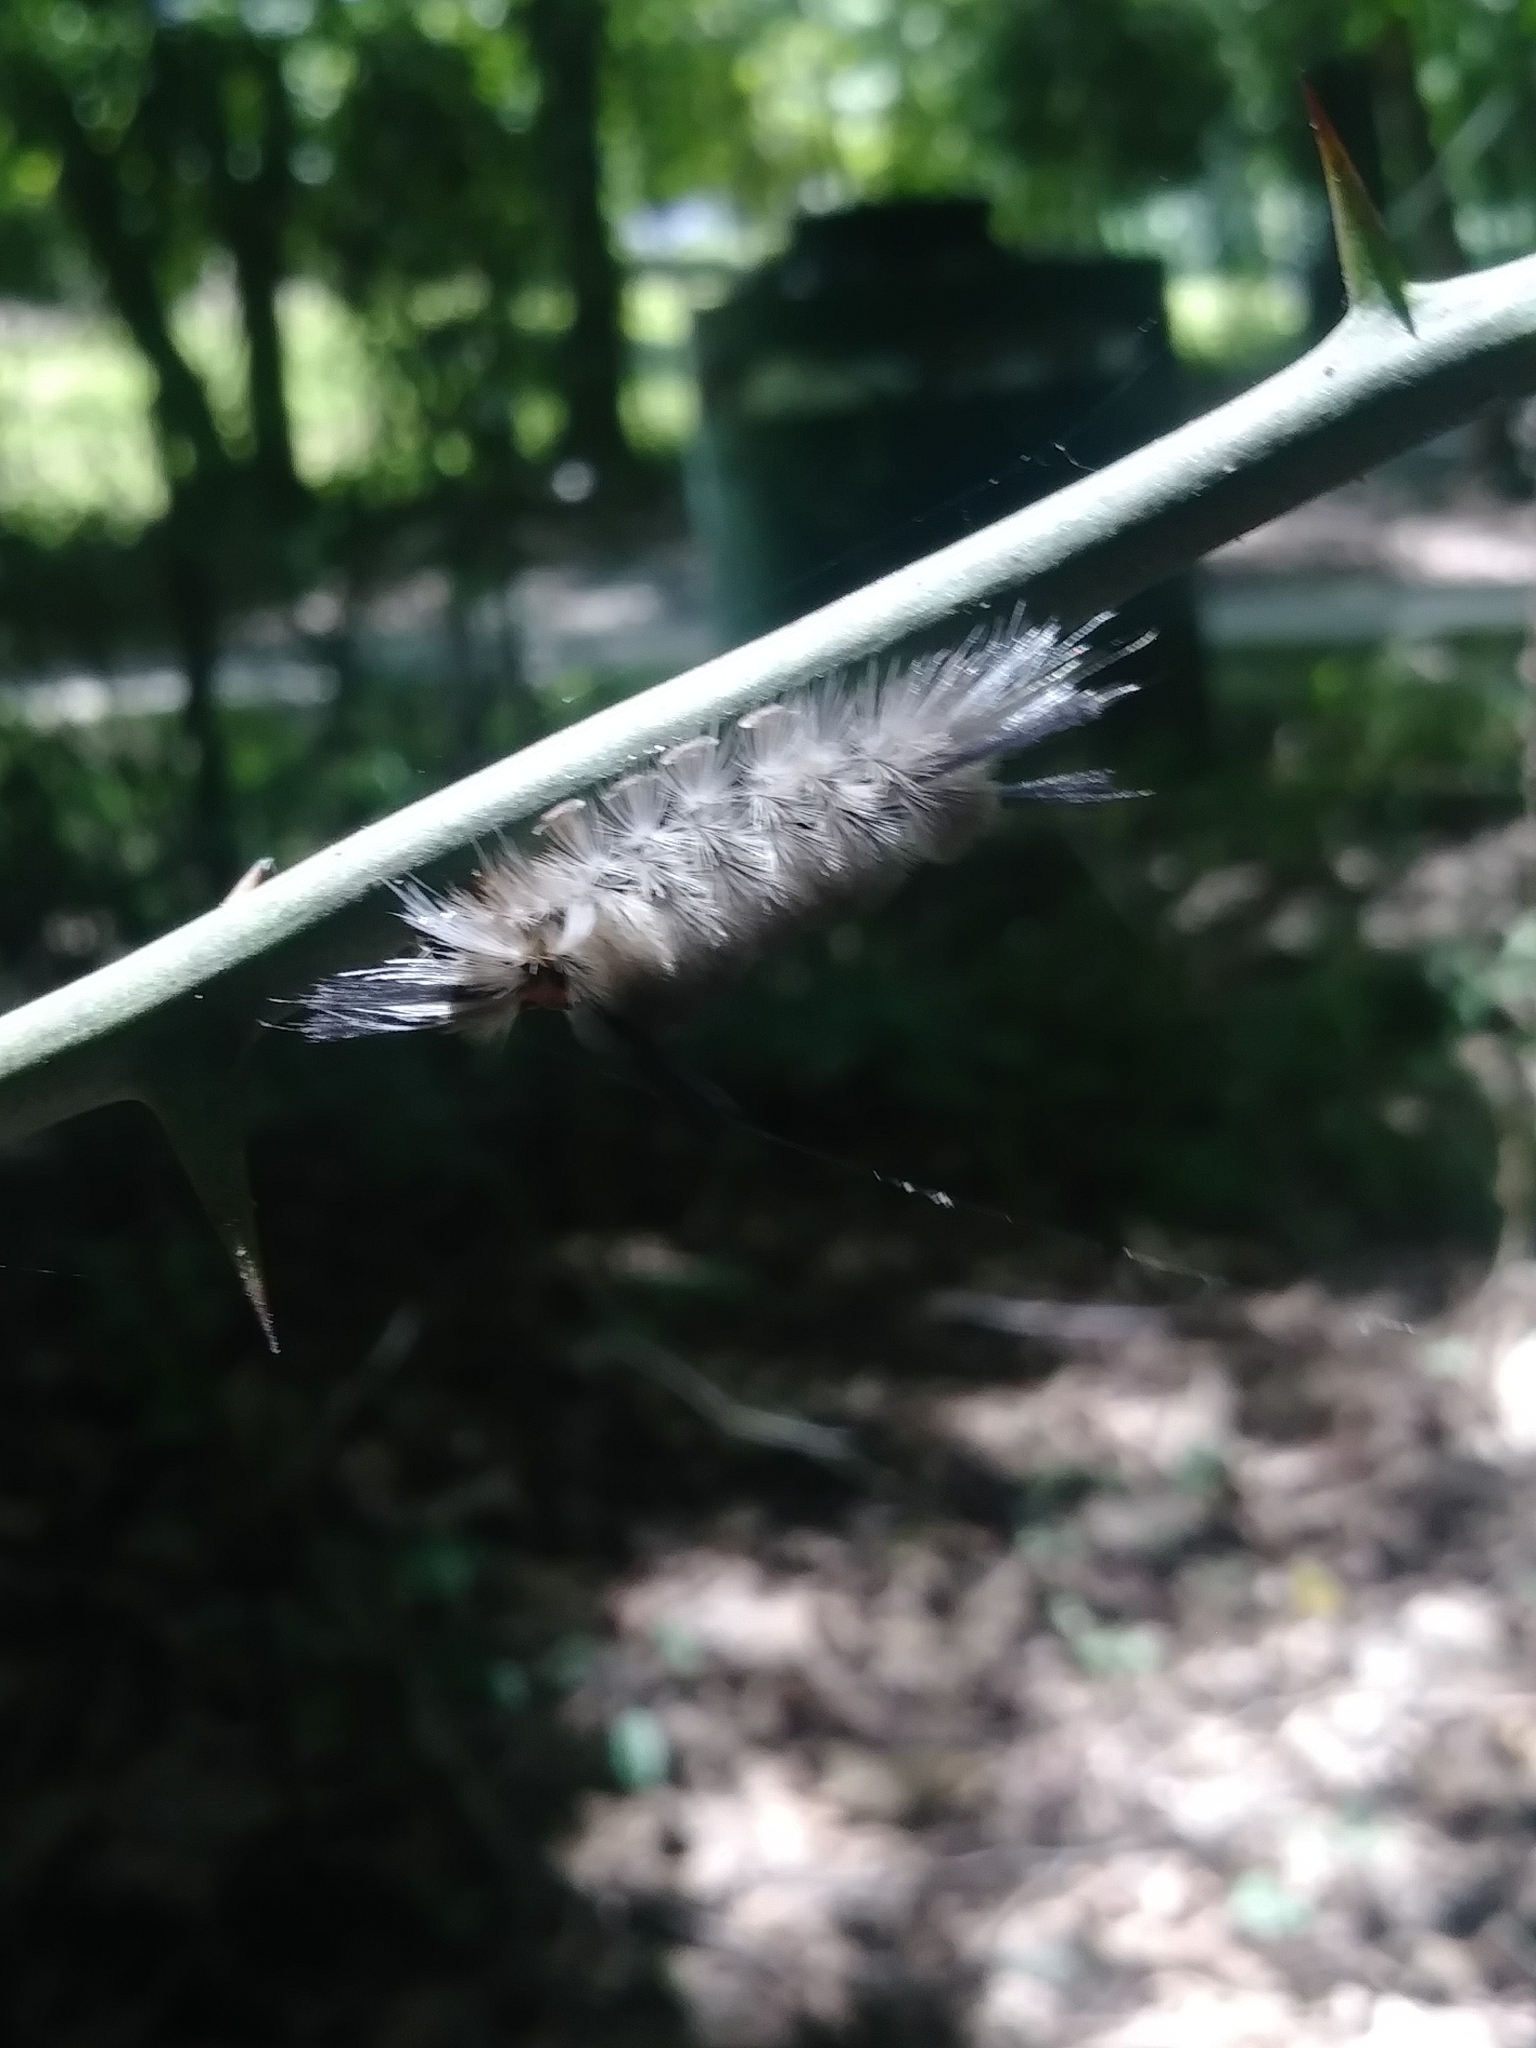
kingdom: Animalia
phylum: Arthropoda
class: Insecta
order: Lepidoptera
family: Erebidae
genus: Halysidota
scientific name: Halysidota tessellaris
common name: Banded tussock moth
